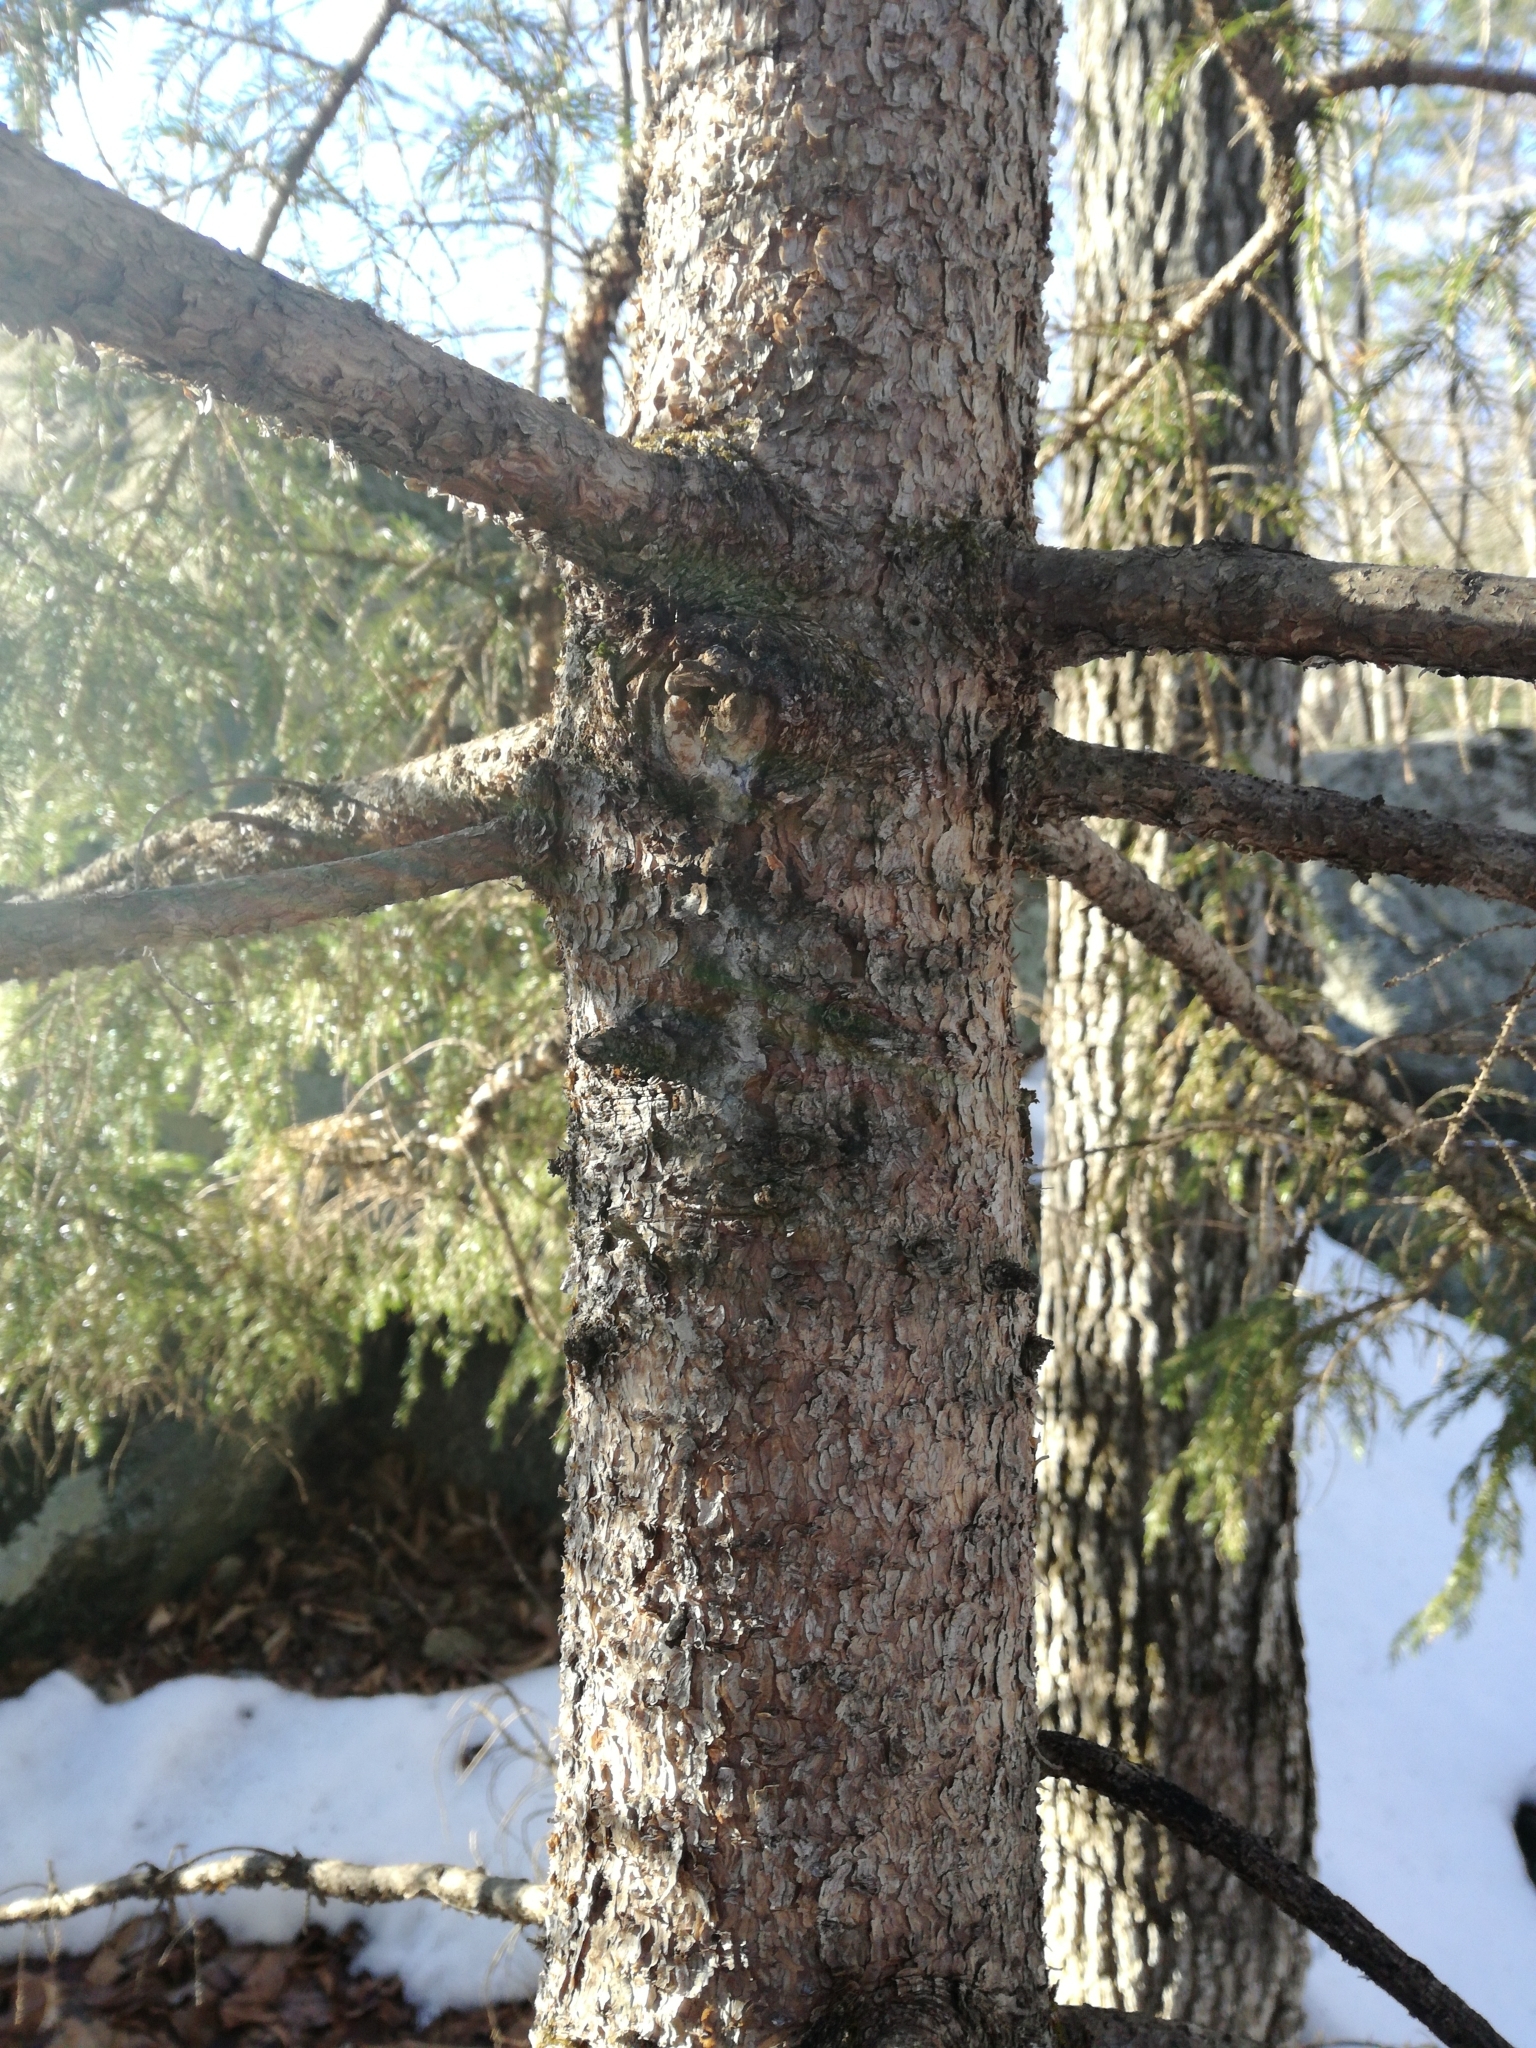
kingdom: Plantae
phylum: Tracheophyta
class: Pinopsida
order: Pinales
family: Pinaceae
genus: Picea
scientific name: Picea rubens
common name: Red spruce
